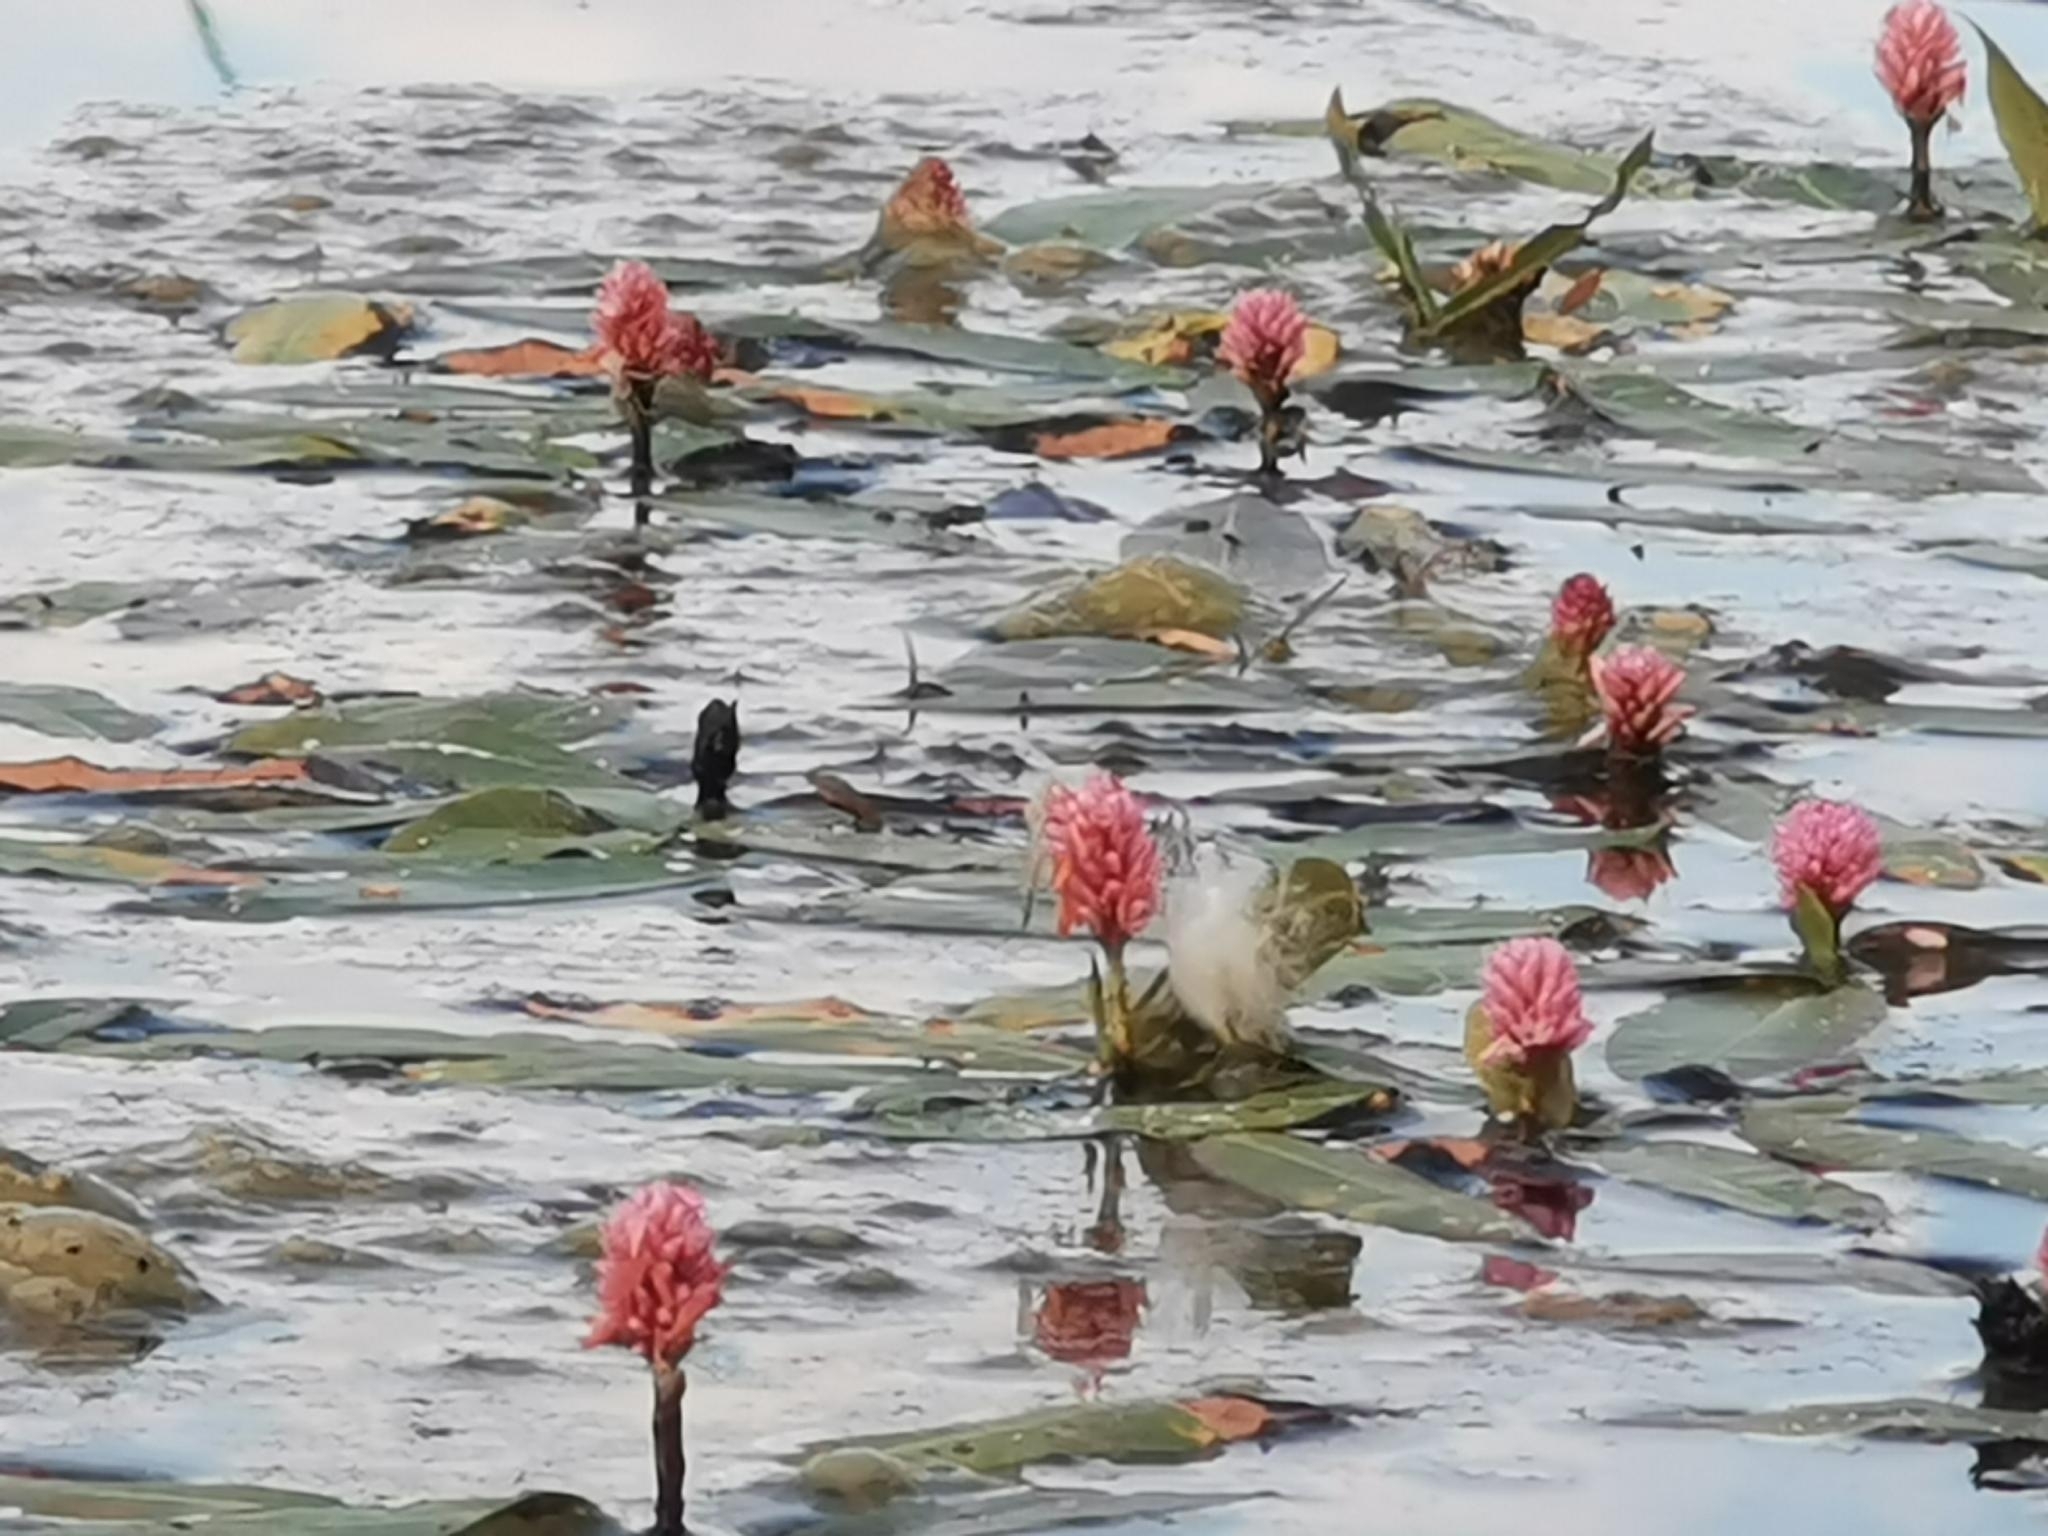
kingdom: Plantae
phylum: Tracheophyta
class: Magnoliopsida
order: Caryophyllales
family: Polygonaceae
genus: Persicaria
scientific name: Persicaria amphibia
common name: Amphibious bistort
